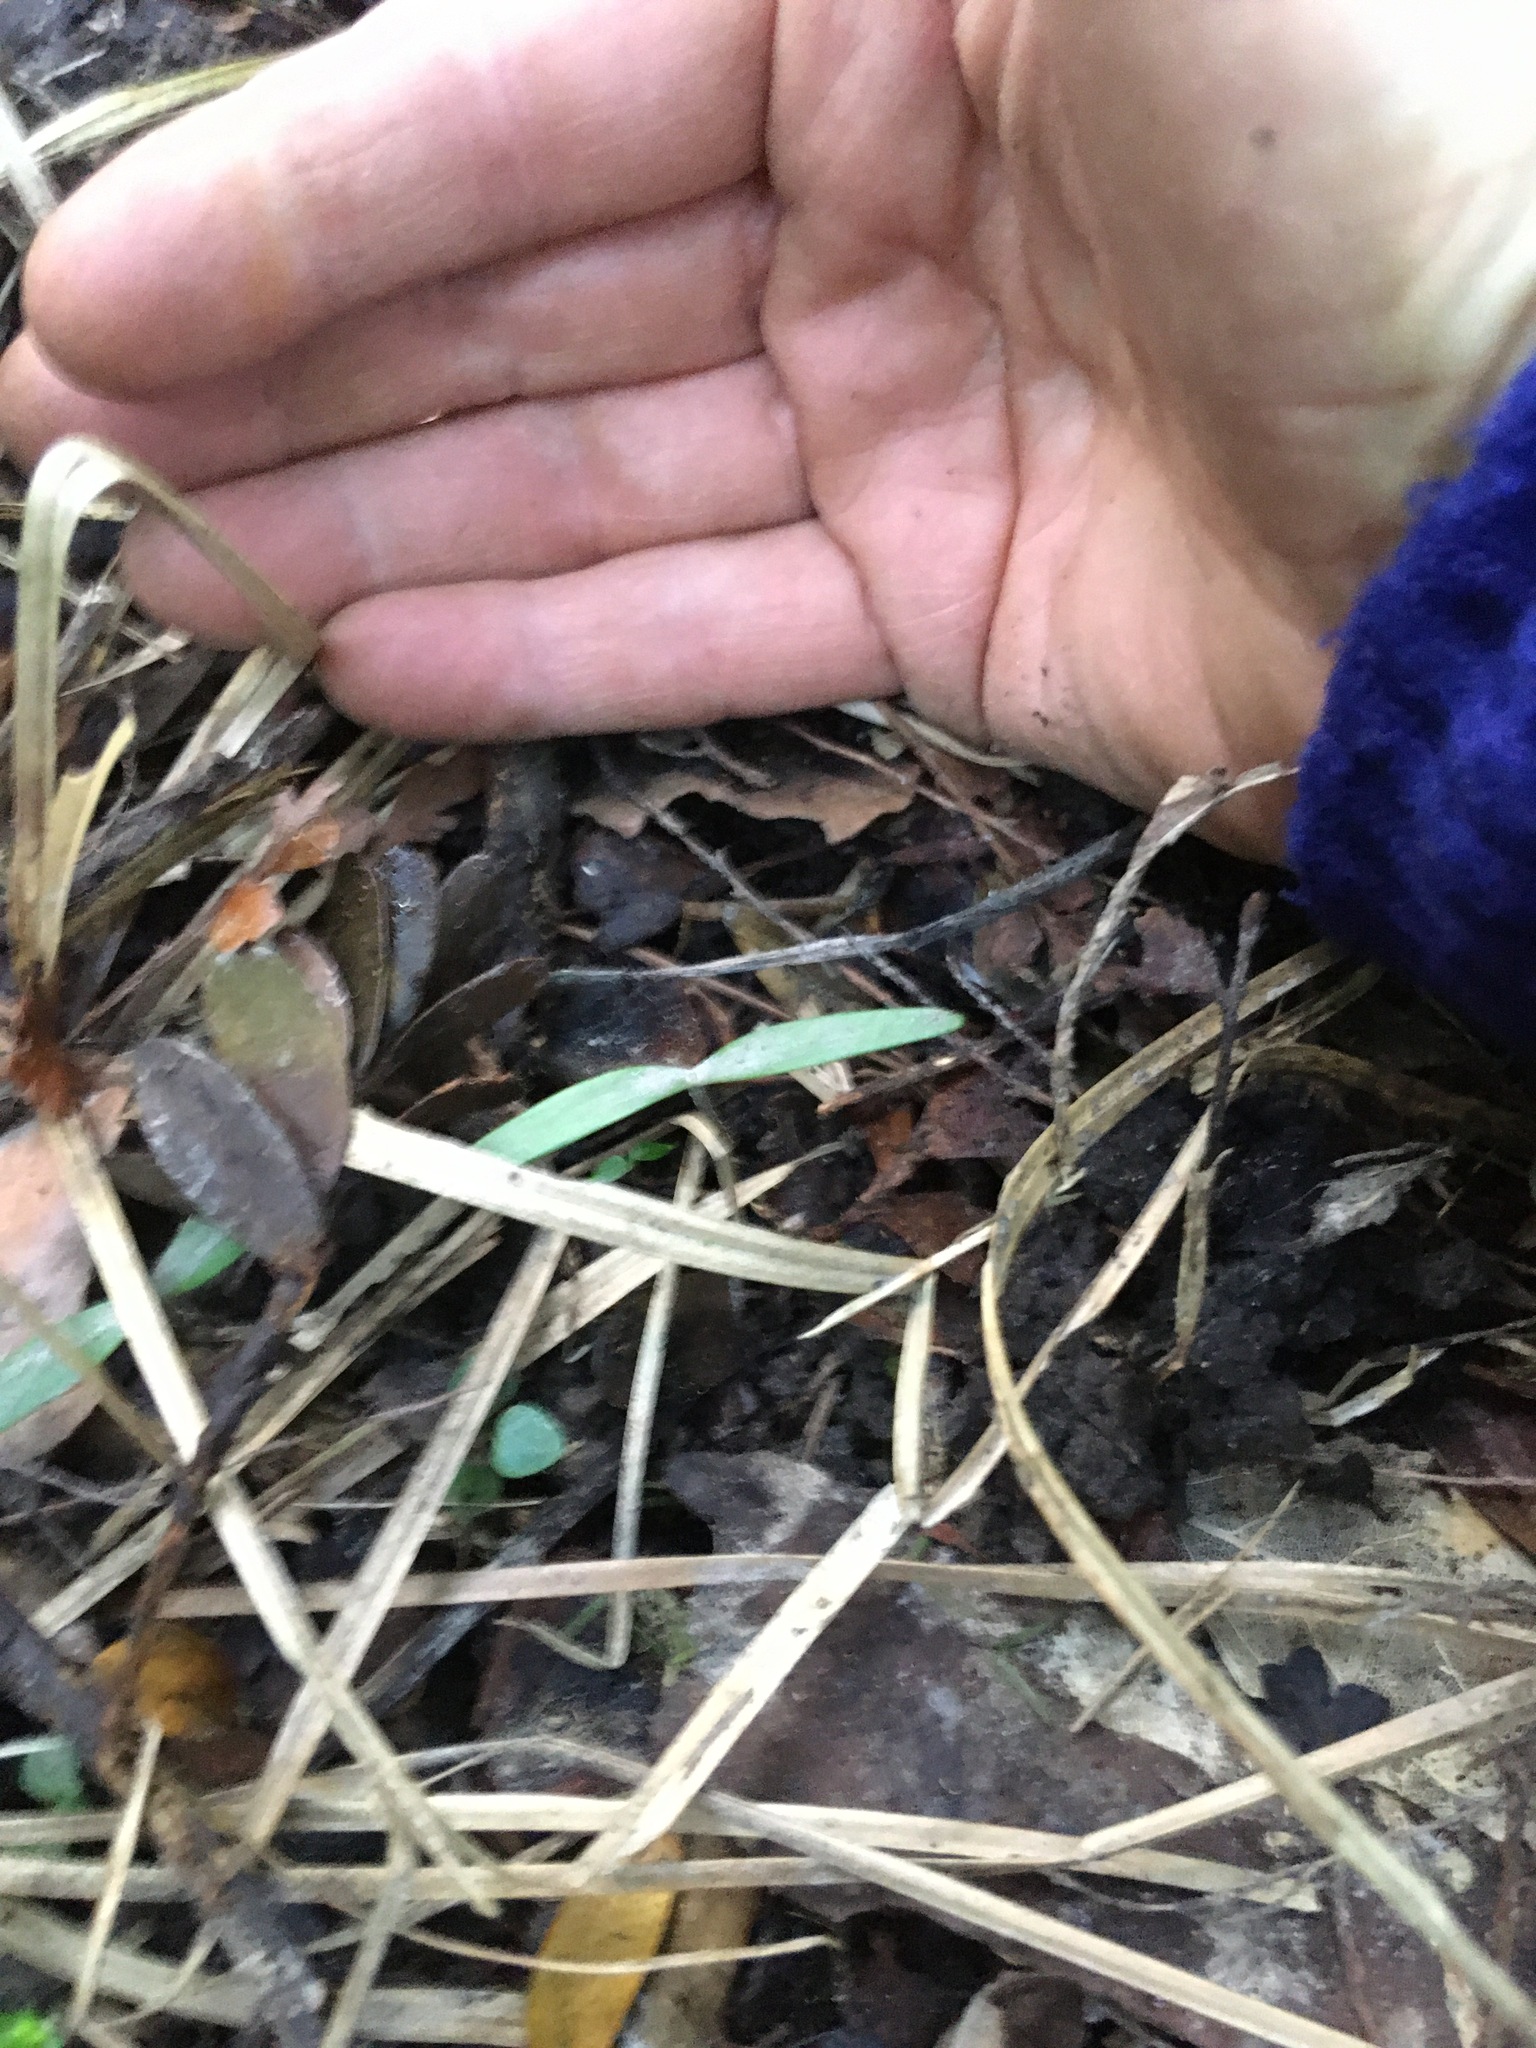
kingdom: Plantae
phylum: Tracheophyta
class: Pinopsida
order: Pinales
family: Araucariaceae
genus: Agathis
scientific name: Agathis australis
